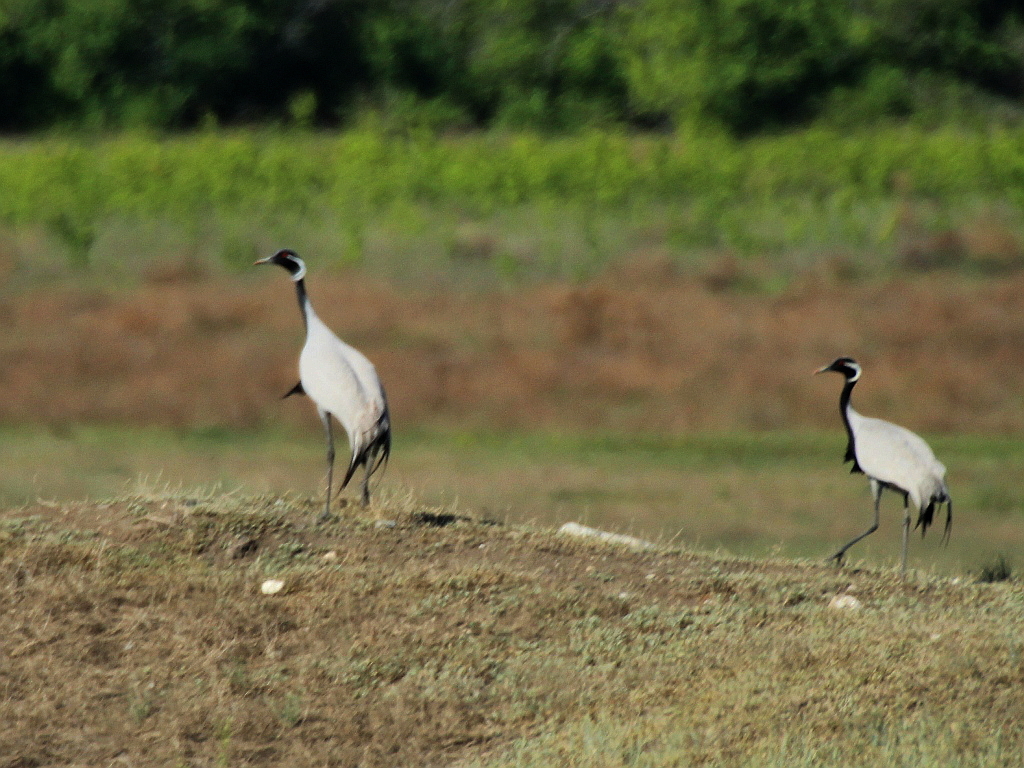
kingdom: Animalia
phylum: Chordata
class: Aves
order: Gruiformes
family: Gruidae
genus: Anthropoides
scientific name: Anthropoides virgo
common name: Demoiselle crane
